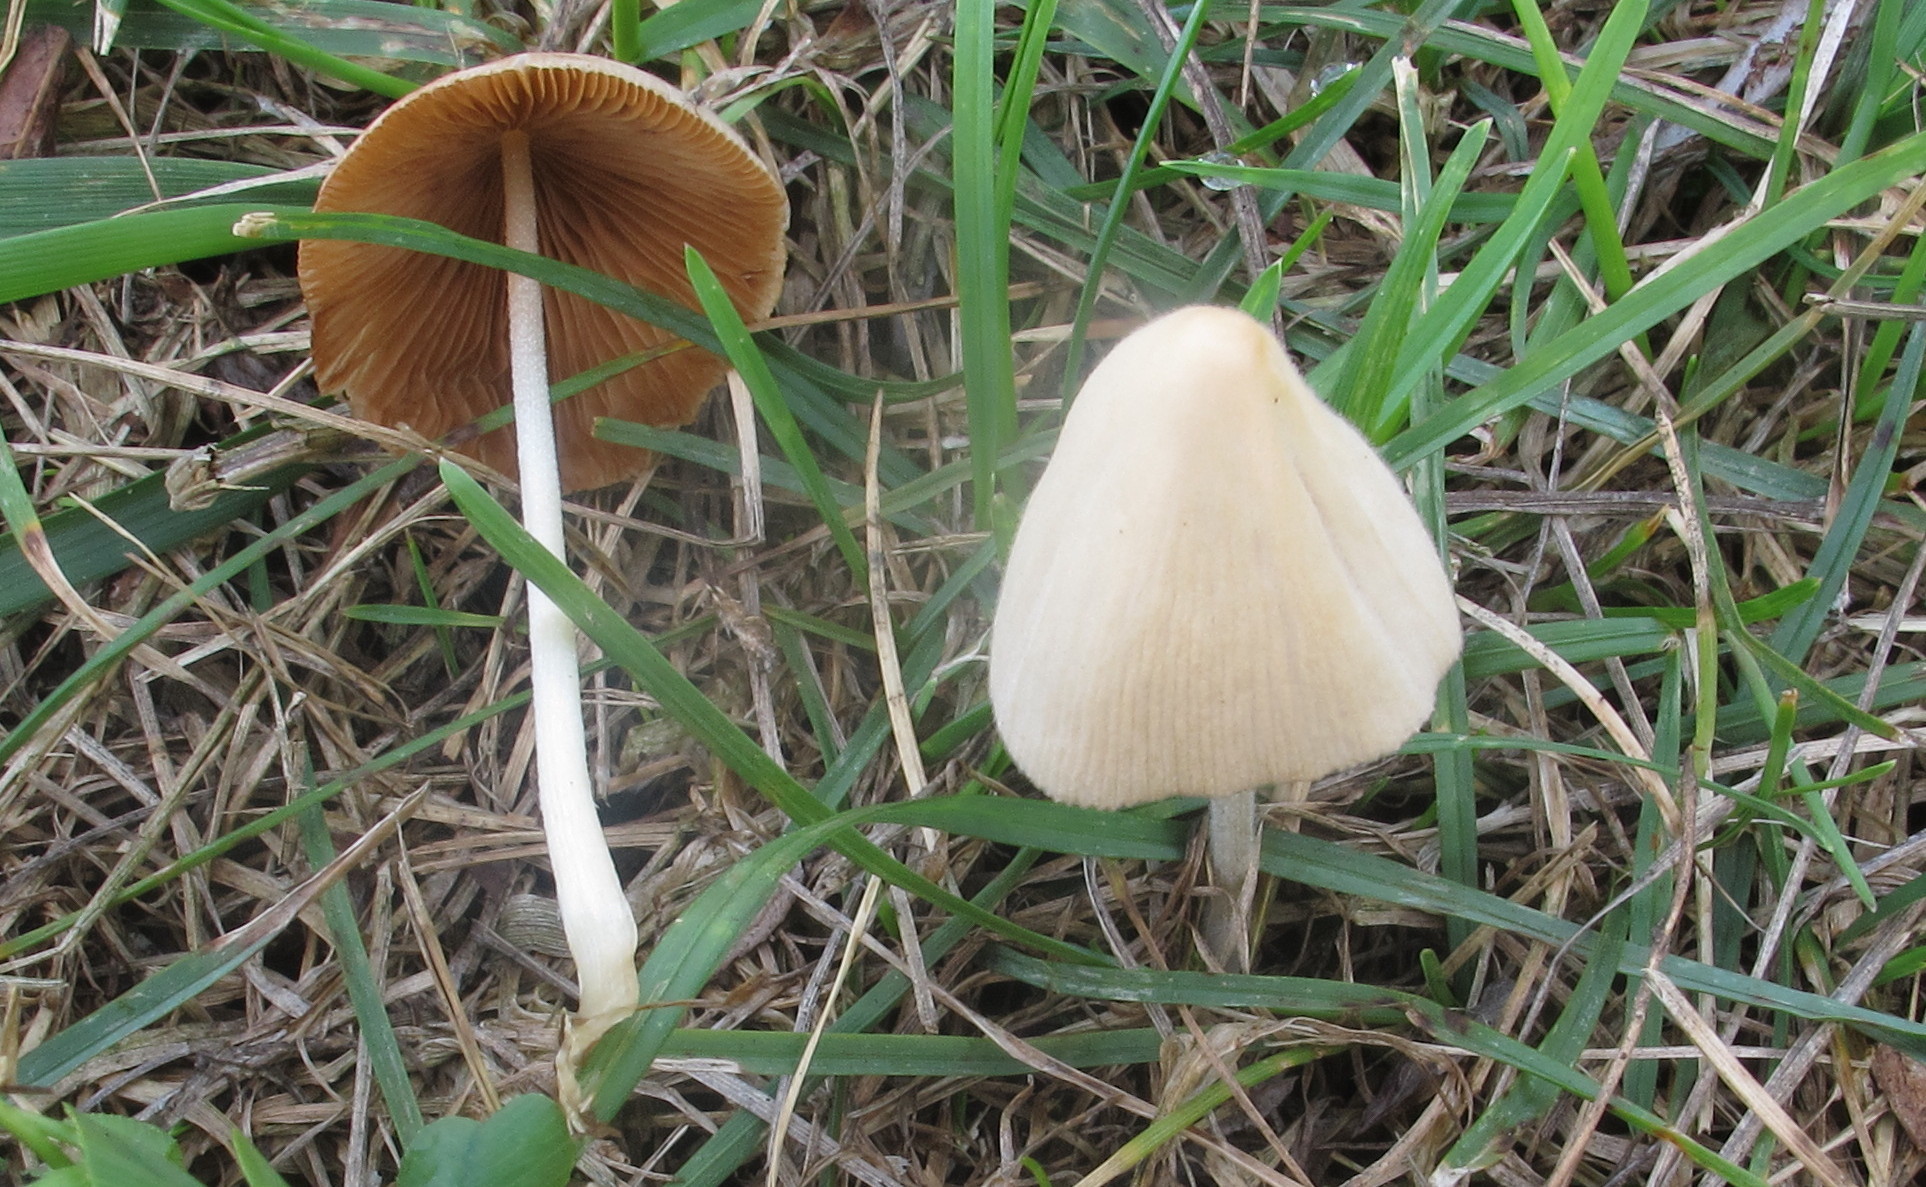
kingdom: Fungi
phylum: Basidiomycota
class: Agaricomycetes
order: Agaricales
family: Bolbitiaceae
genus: Conocybe
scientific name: Conocybe apala
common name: Milky conecap
